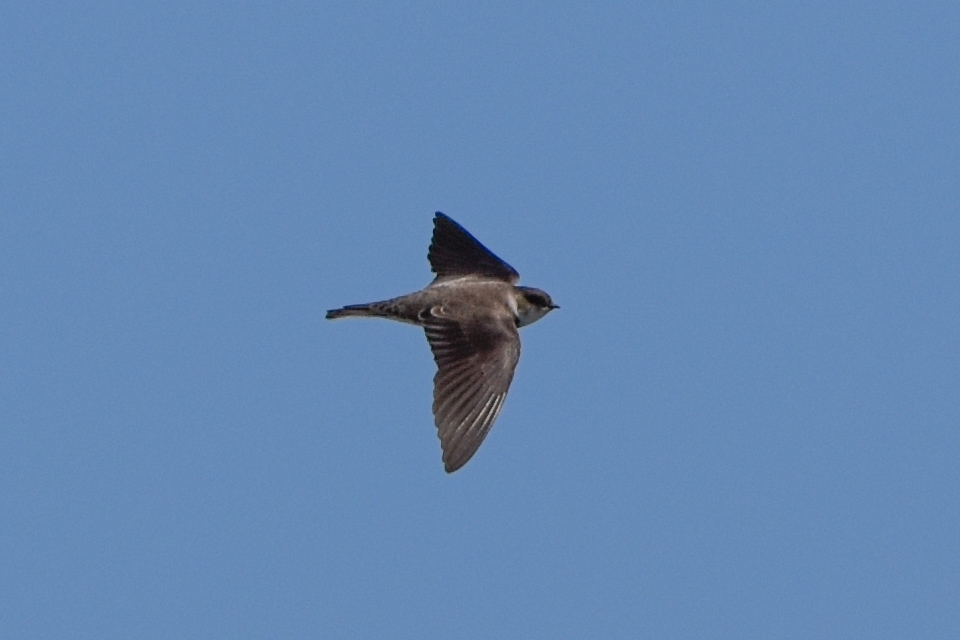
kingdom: Animalia
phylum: Chordata
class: Aves
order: Passeriformes
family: Hirundinidae
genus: Riparia
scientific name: Riparia riparia
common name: Sand martin
